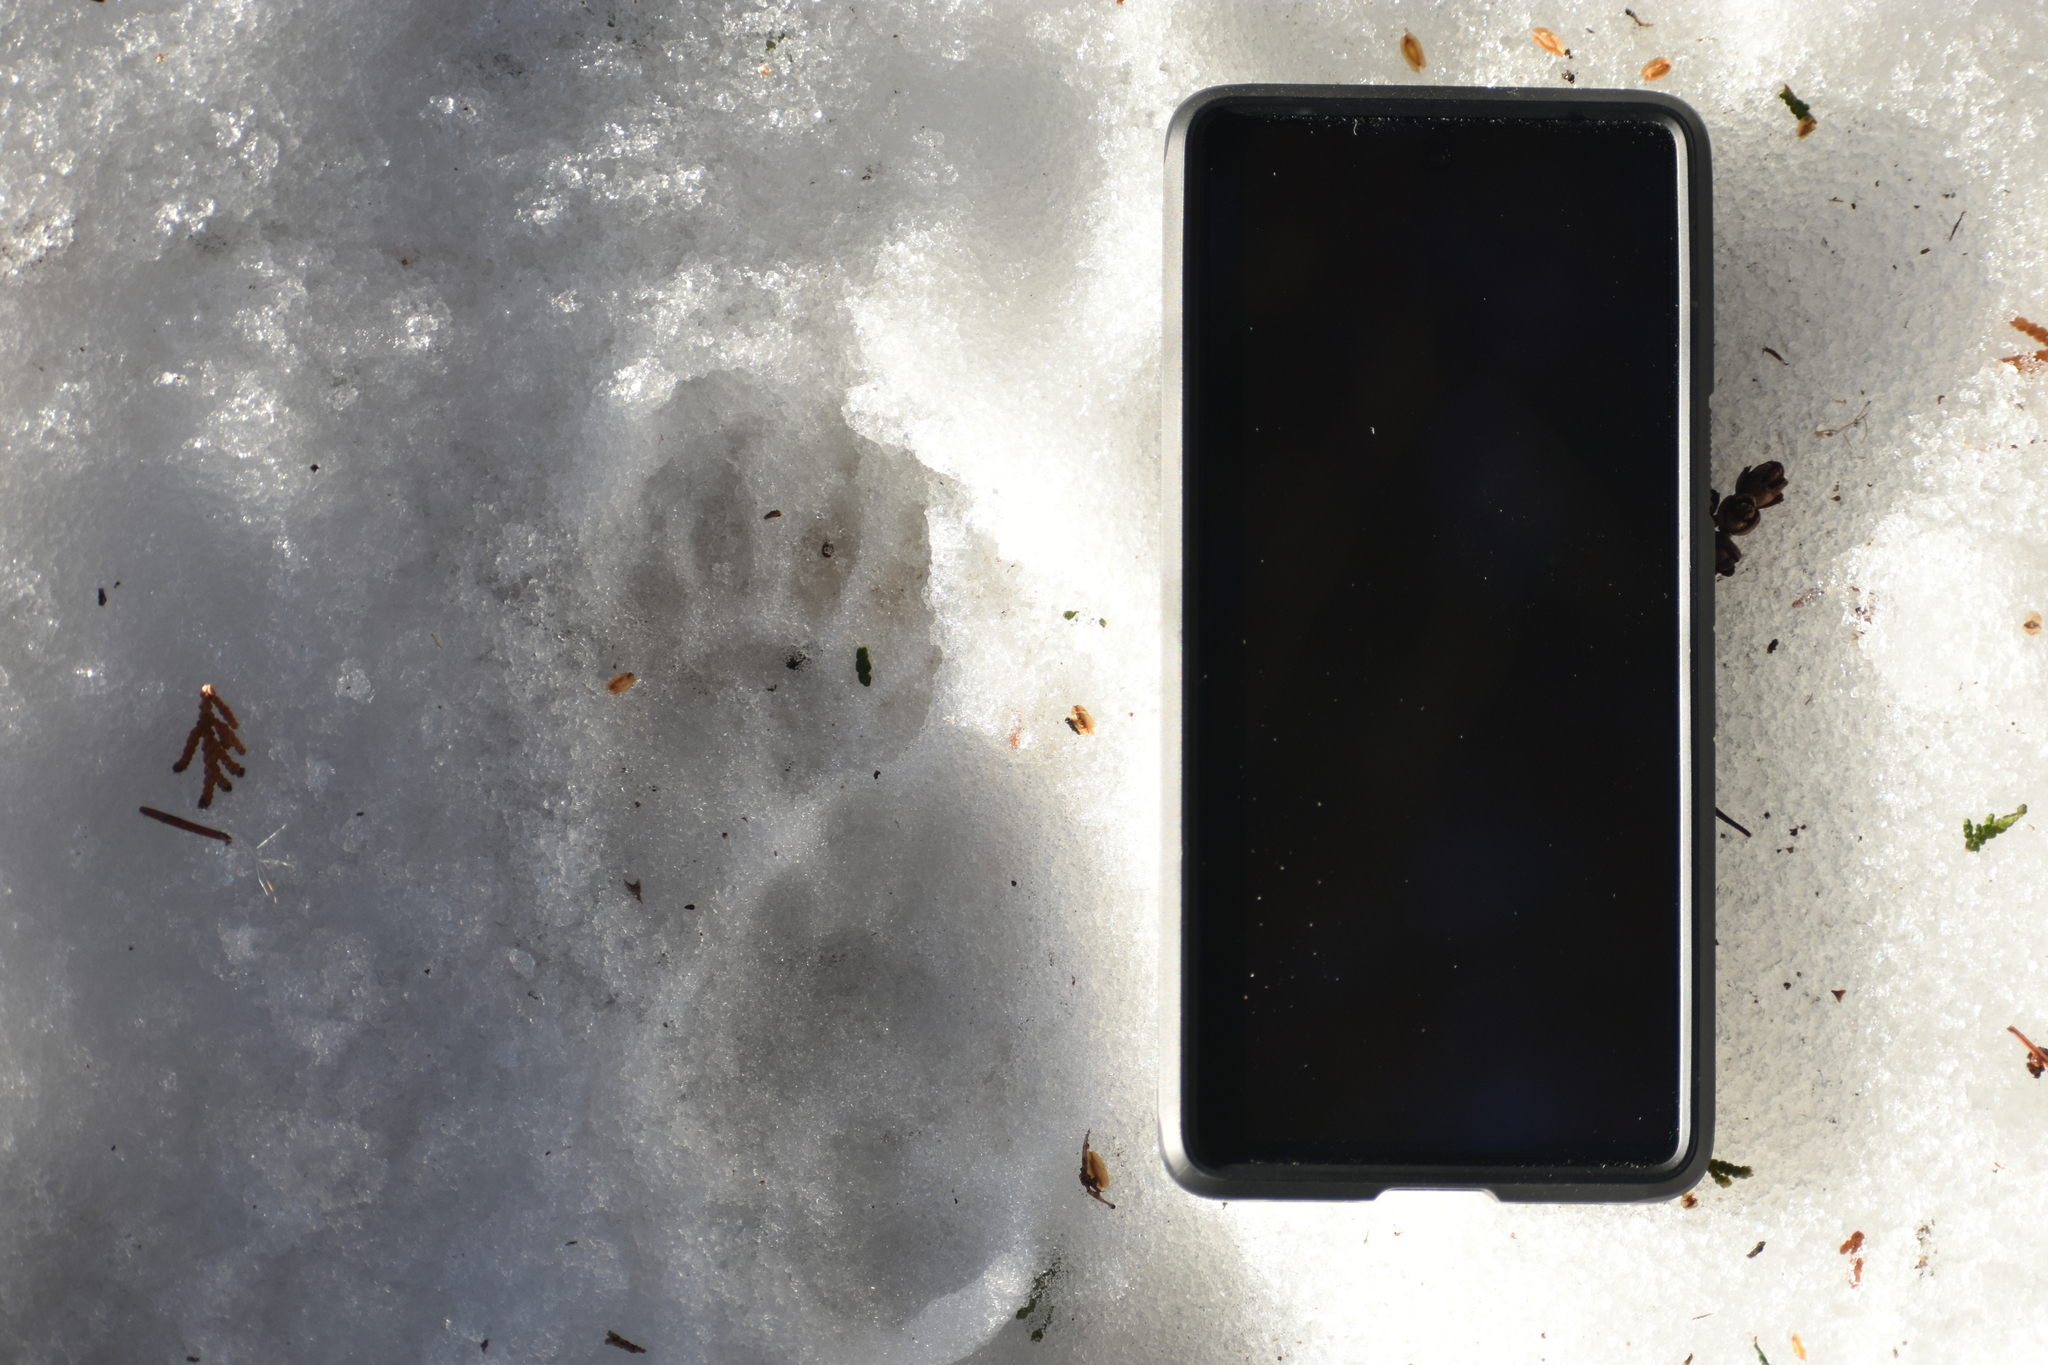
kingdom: Animalia
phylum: Chordata
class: Mammalia
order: Carnivora
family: Mustelidae
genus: Mustela
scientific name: Mustela
